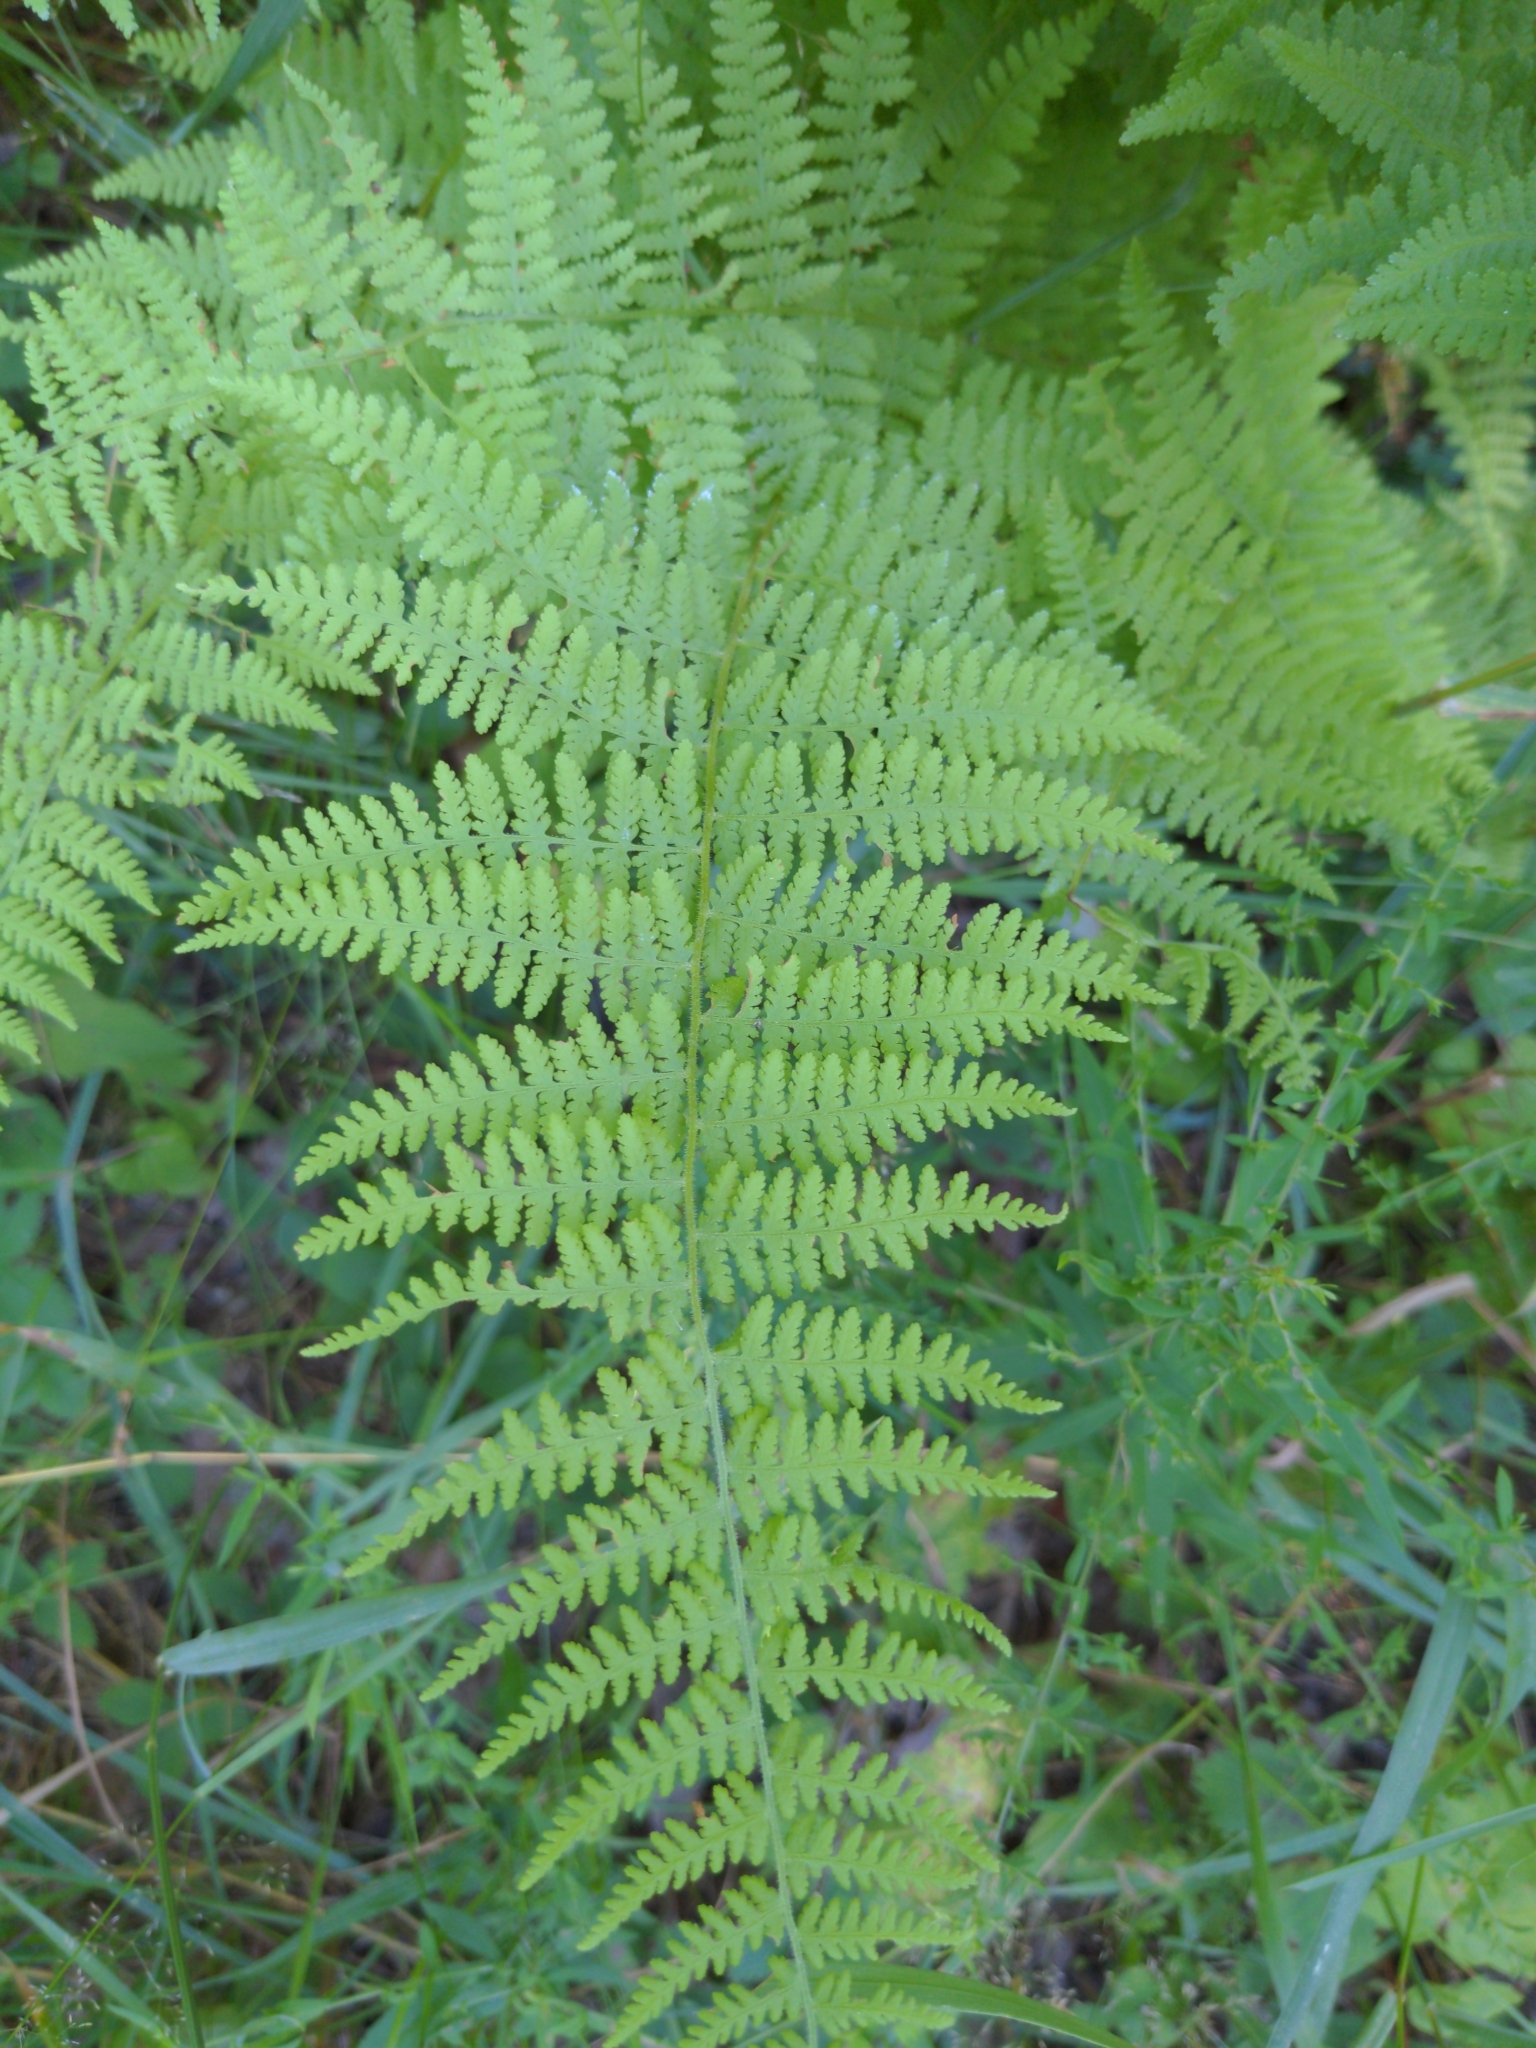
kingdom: Plantae
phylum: Tracheophyta
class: Polypodiopsida
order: Polypodiales
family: Dennstaedtiaceae
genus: Sitobolium
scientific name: Sitobolium punctilobum
